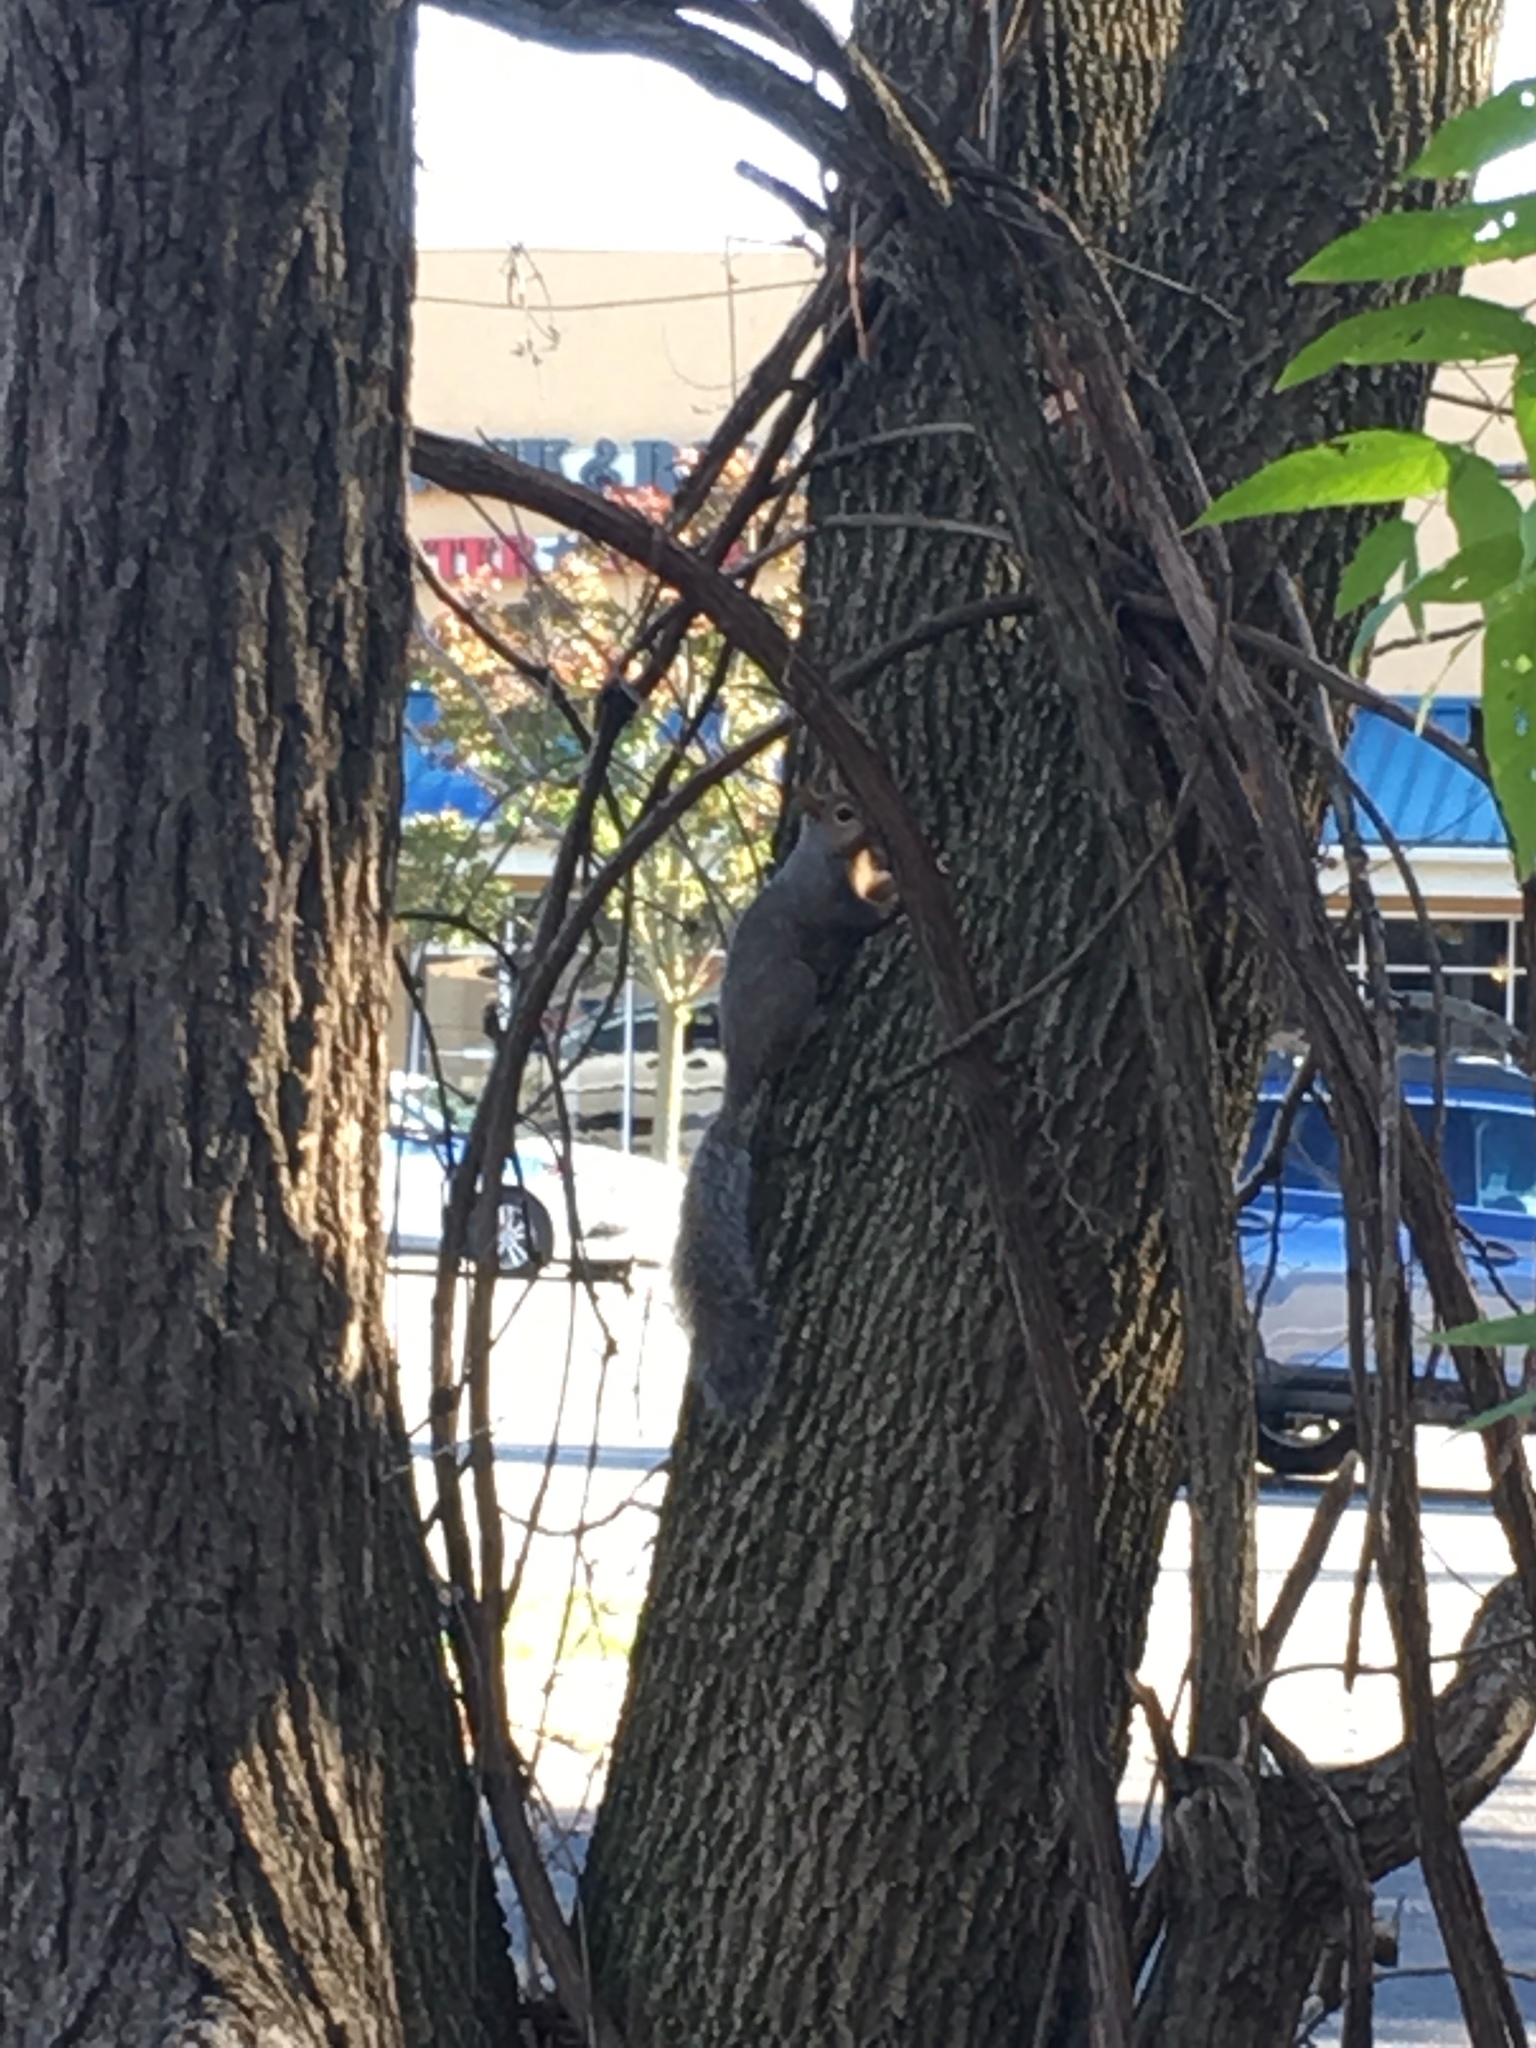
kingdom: Animalia
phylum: Chordata
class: Mammalia
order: Rodentia
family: Sciuridae
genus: Sciurus
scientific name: Sciurus carolinensis
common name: Eastern gray squirrel
